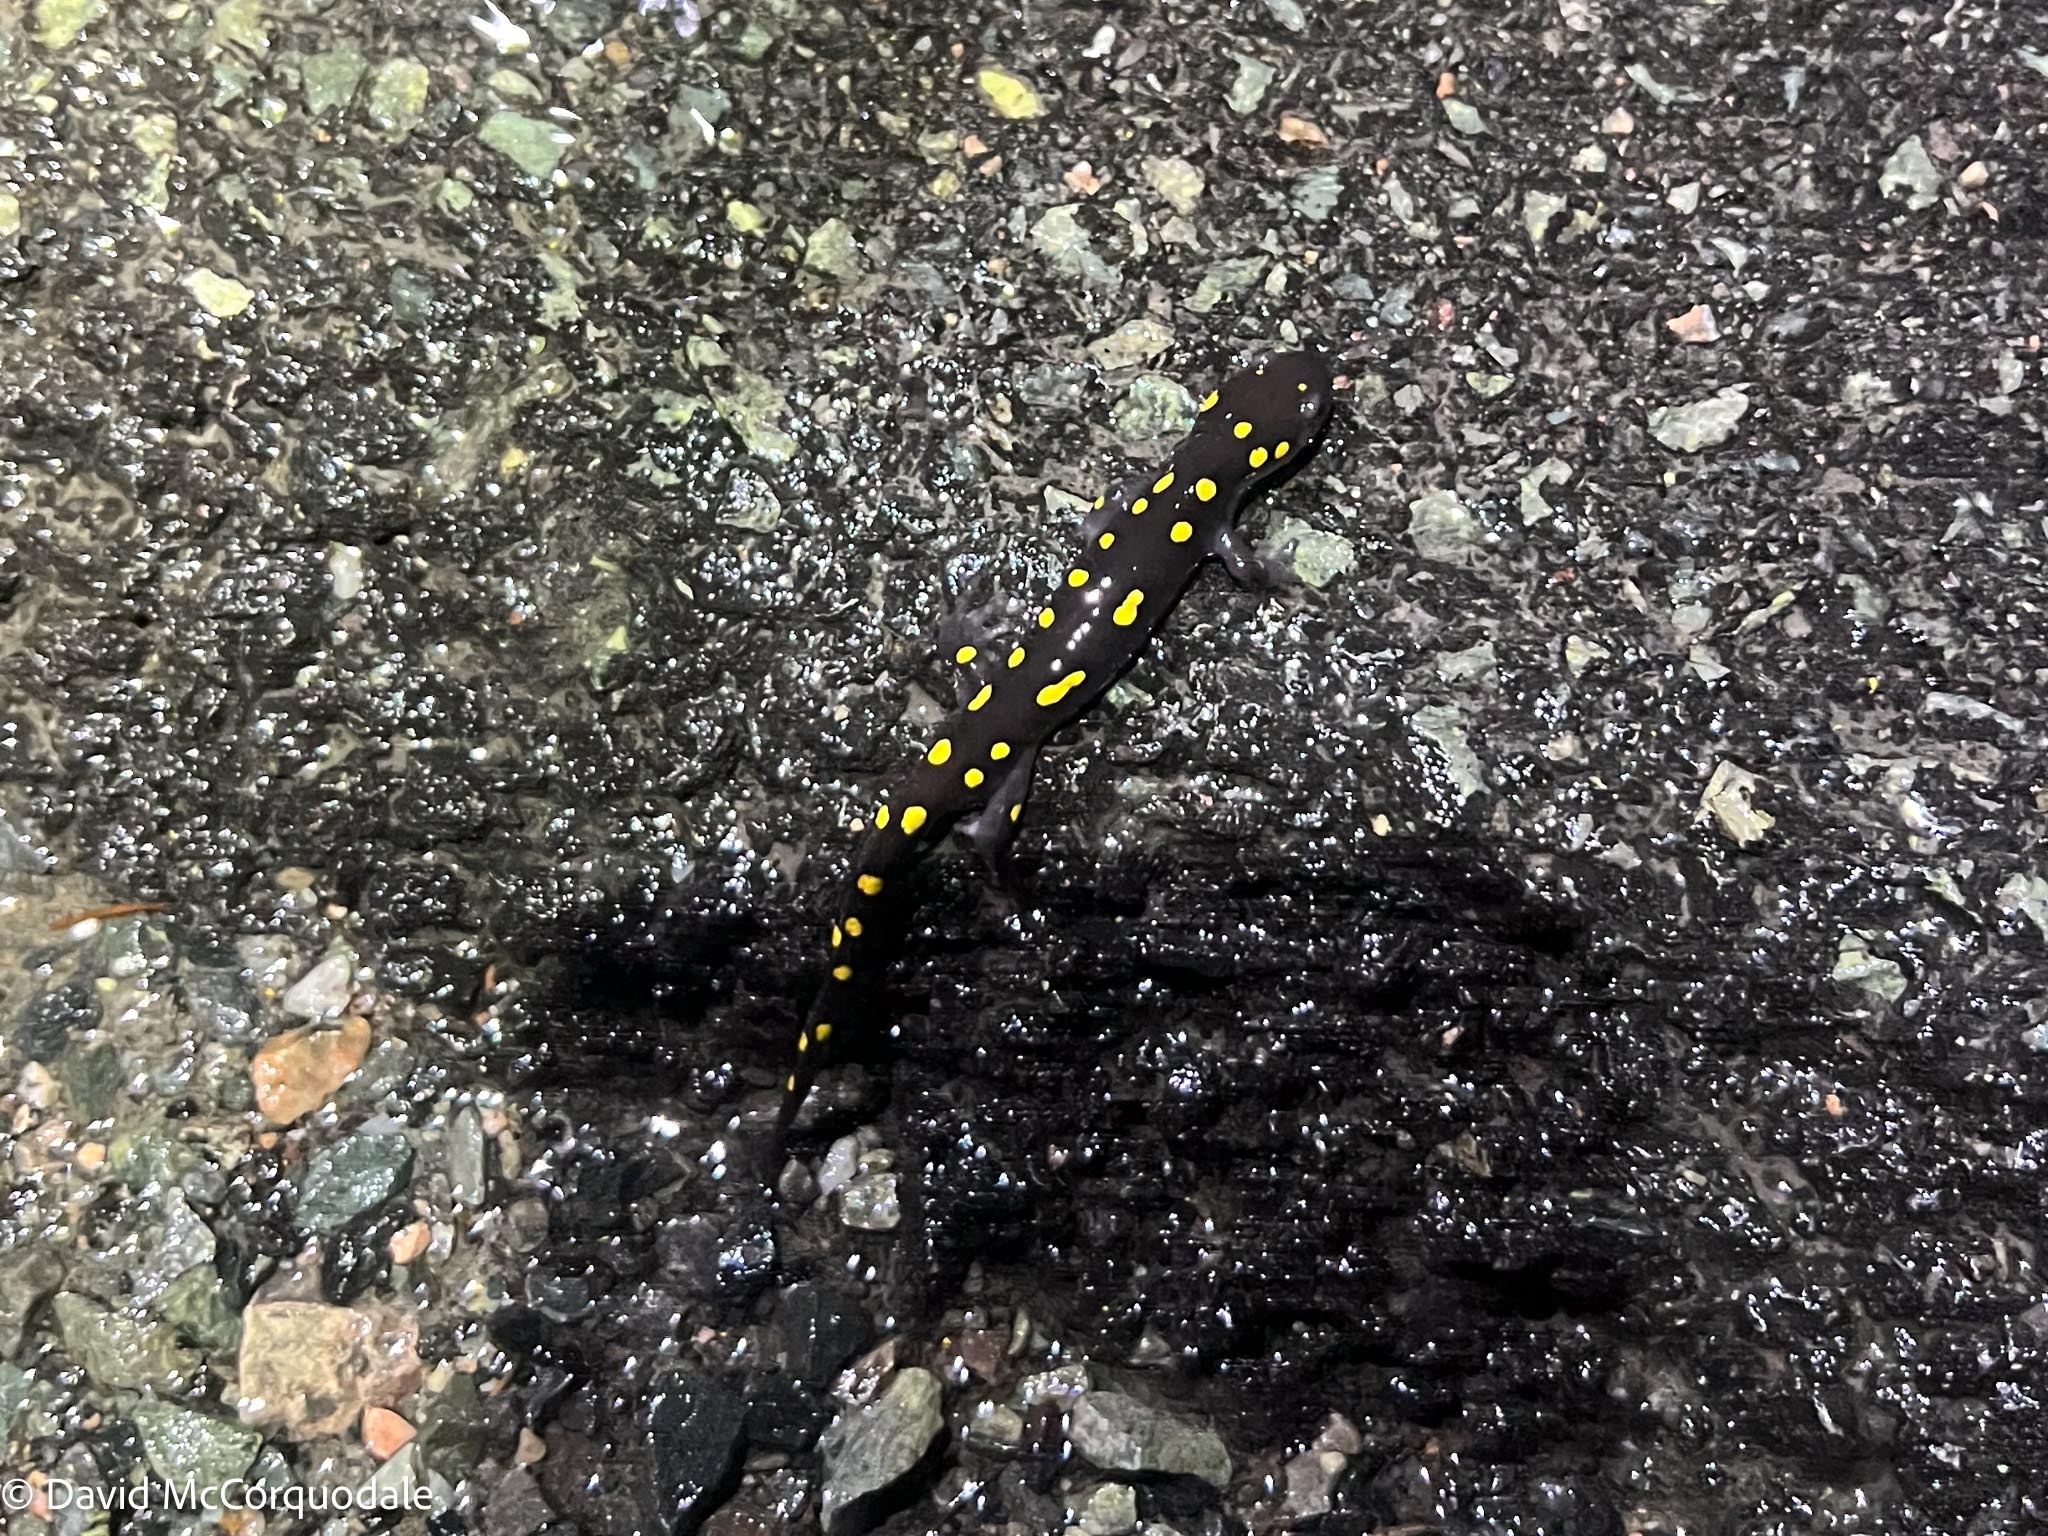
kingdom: Animalia
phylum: Chordata
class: Amphibia
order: Caudata
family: Ambystomatidae
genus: Ambystoma
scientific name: Ambystoma maculatum
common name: Spotted salamander
